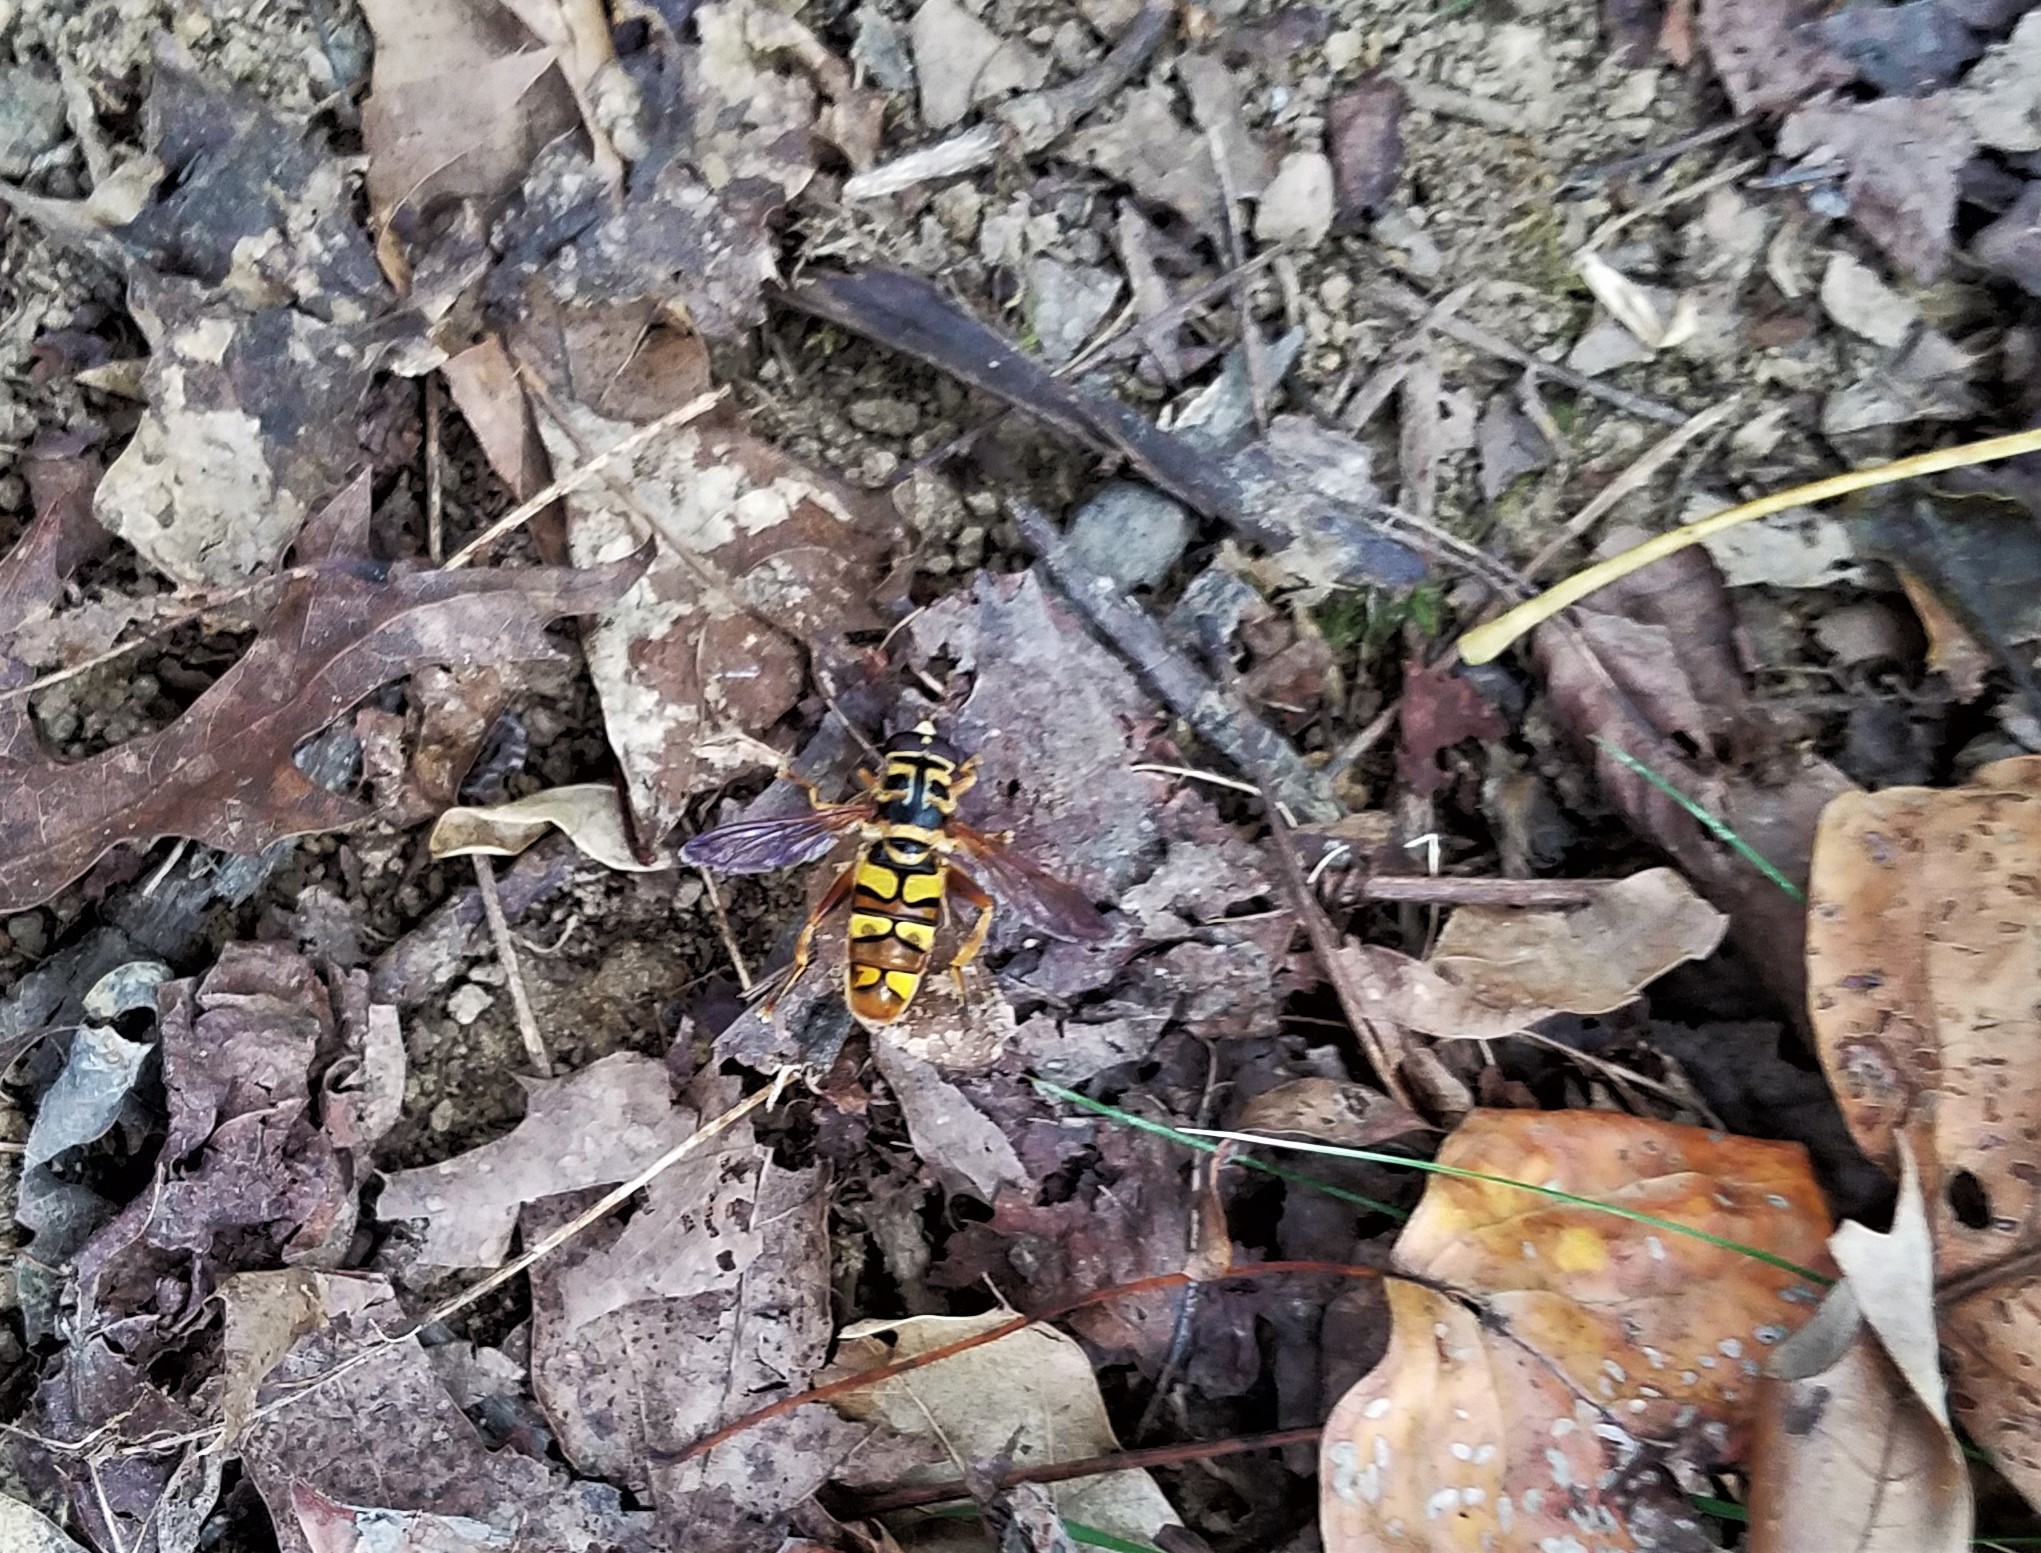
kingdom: Animalia
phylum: Arthropoda
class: Insecta
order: Diptera
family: Syrphidae
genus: Milesia
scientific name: Milesia virginiensis
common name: Virginia giant
